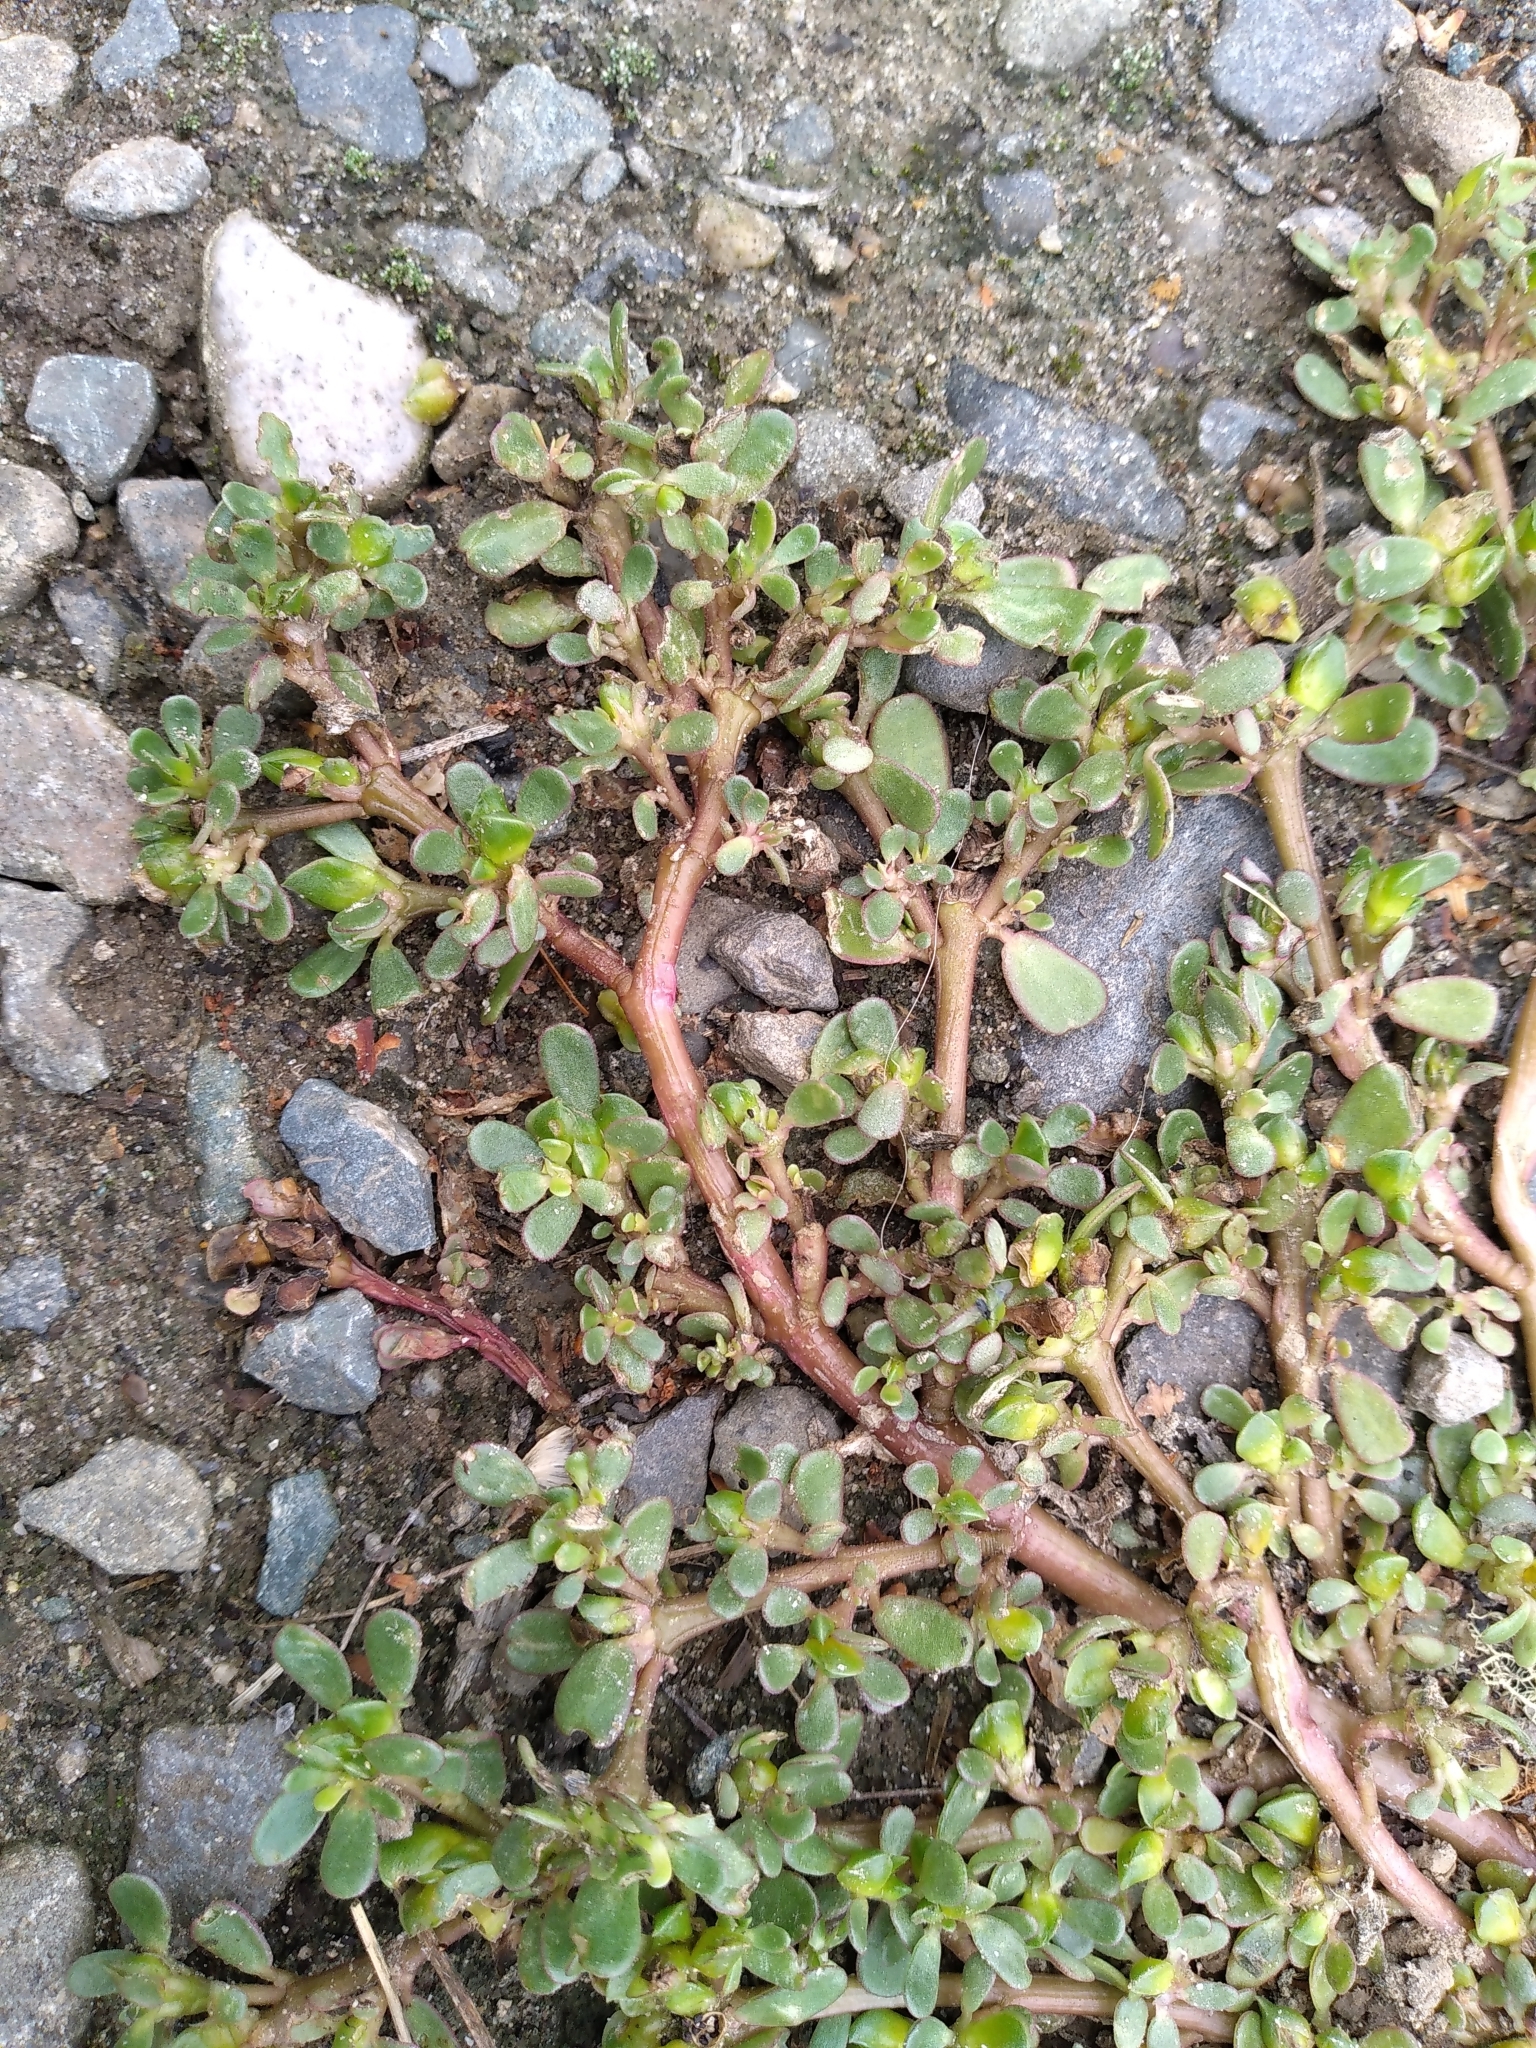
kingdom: Plantae
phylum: Tracheophyta
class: Magnoliopsida
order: Caryophyllales
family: Portulacaceae
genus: Portulaca
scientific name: Portulaca oleracea
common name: Common purslane
